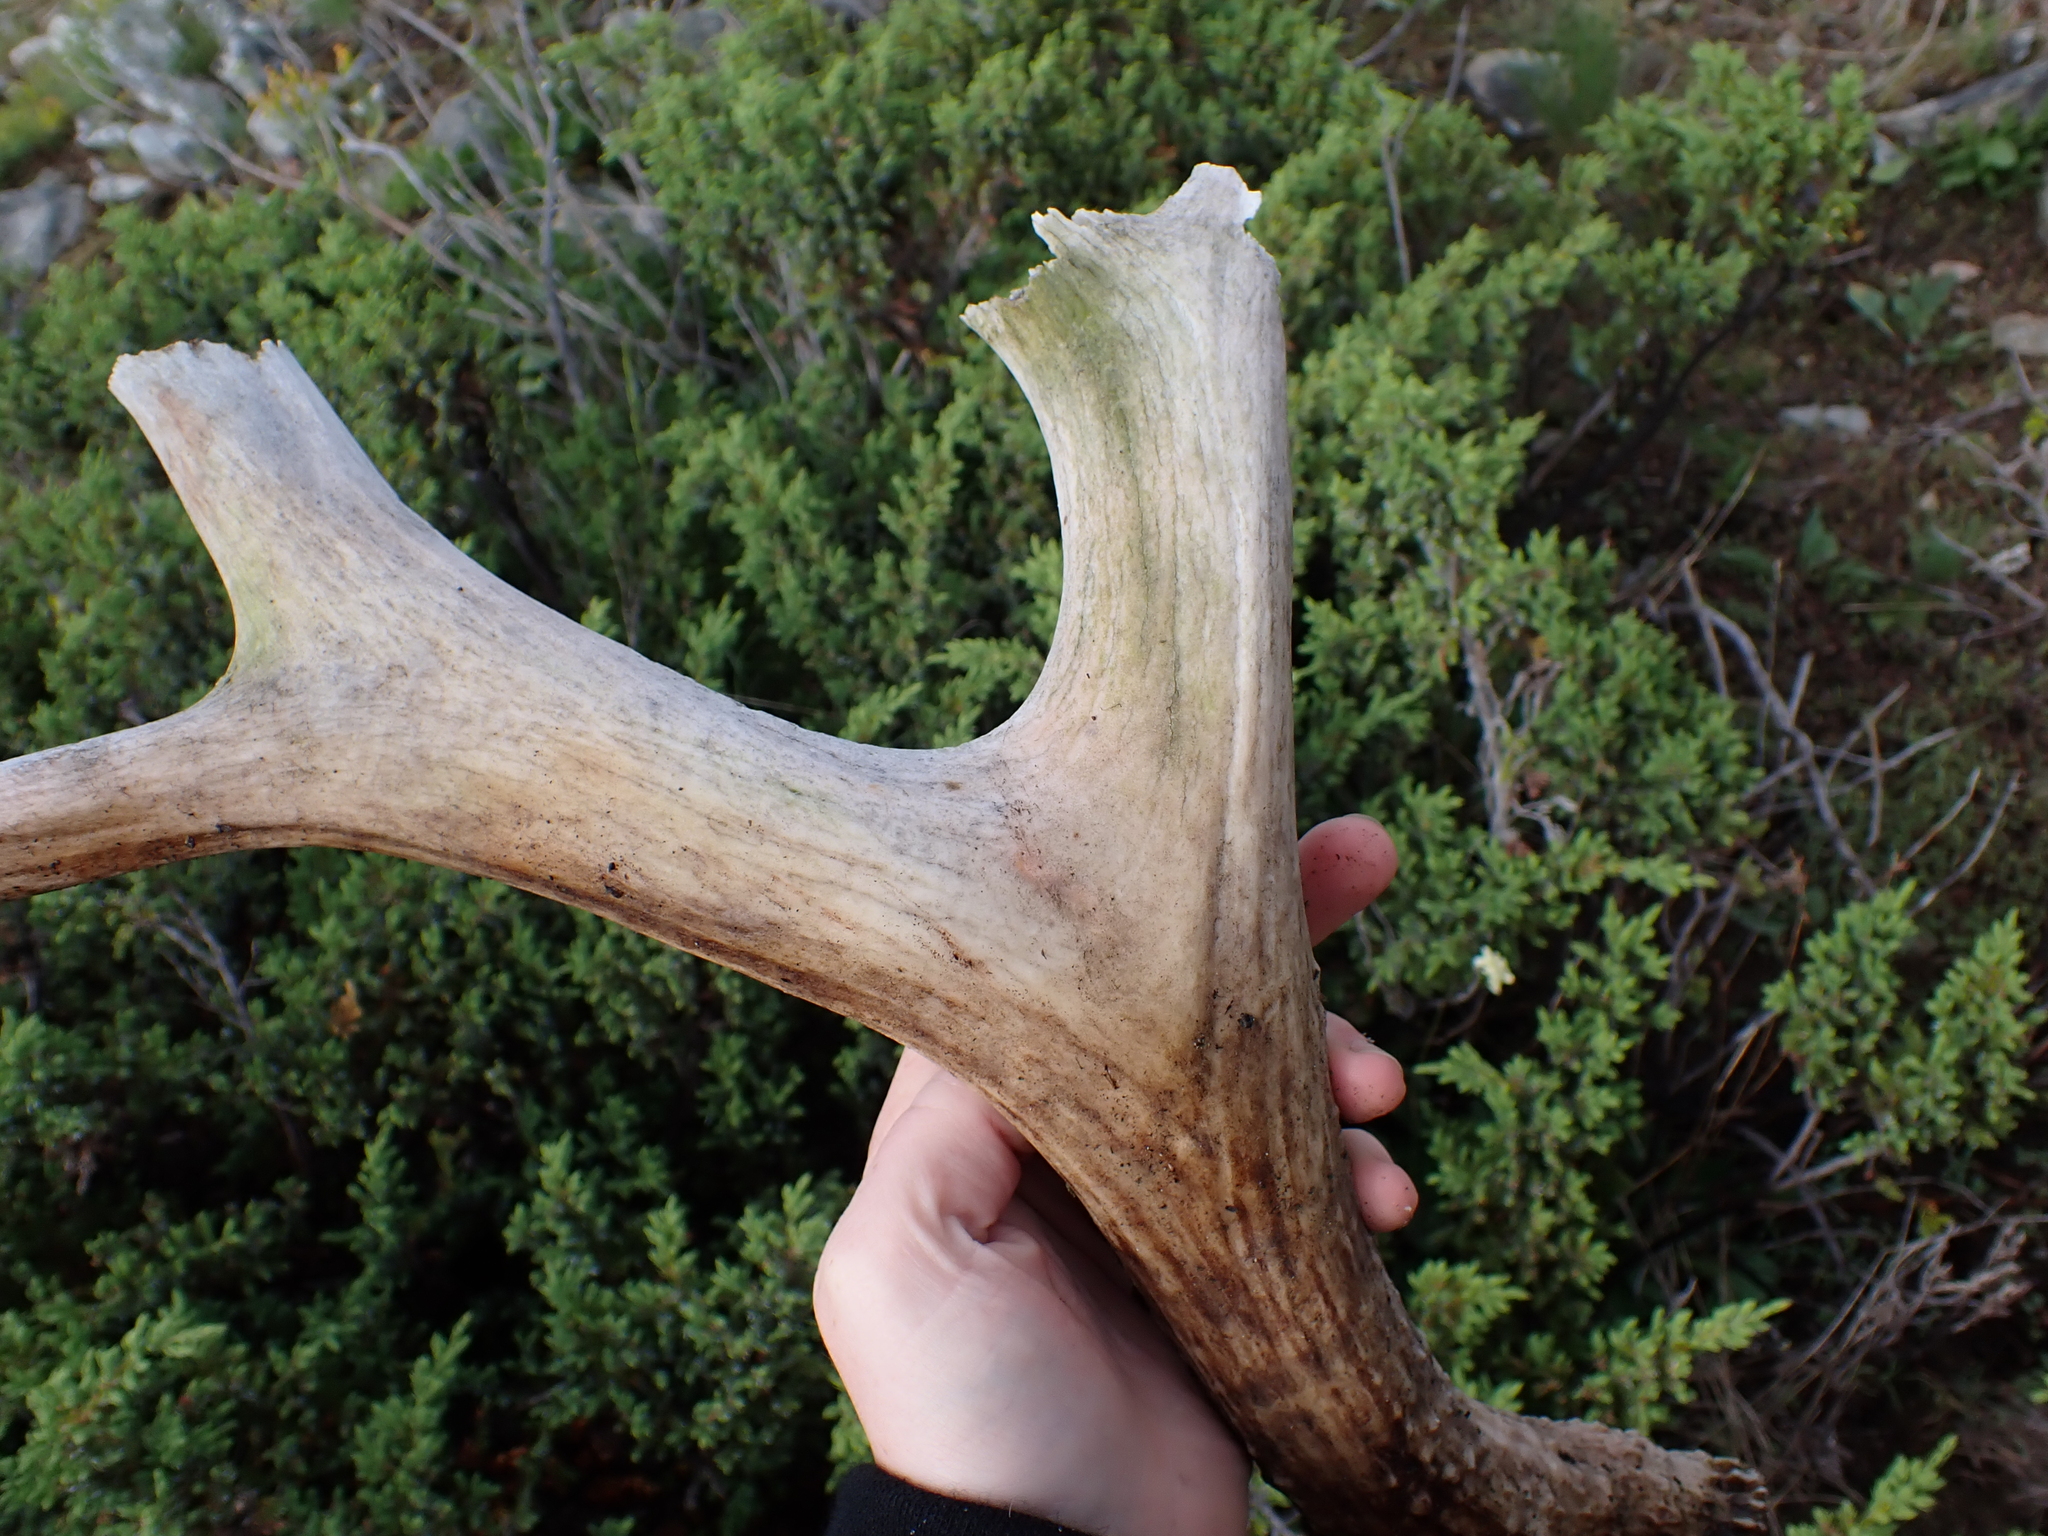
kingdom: Animalia
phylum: Chordata
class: Mammalia
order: Artiodactyla
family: Cervidae
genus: Odocoileus
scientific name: Odocoileus hemionus
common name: Mule deer
